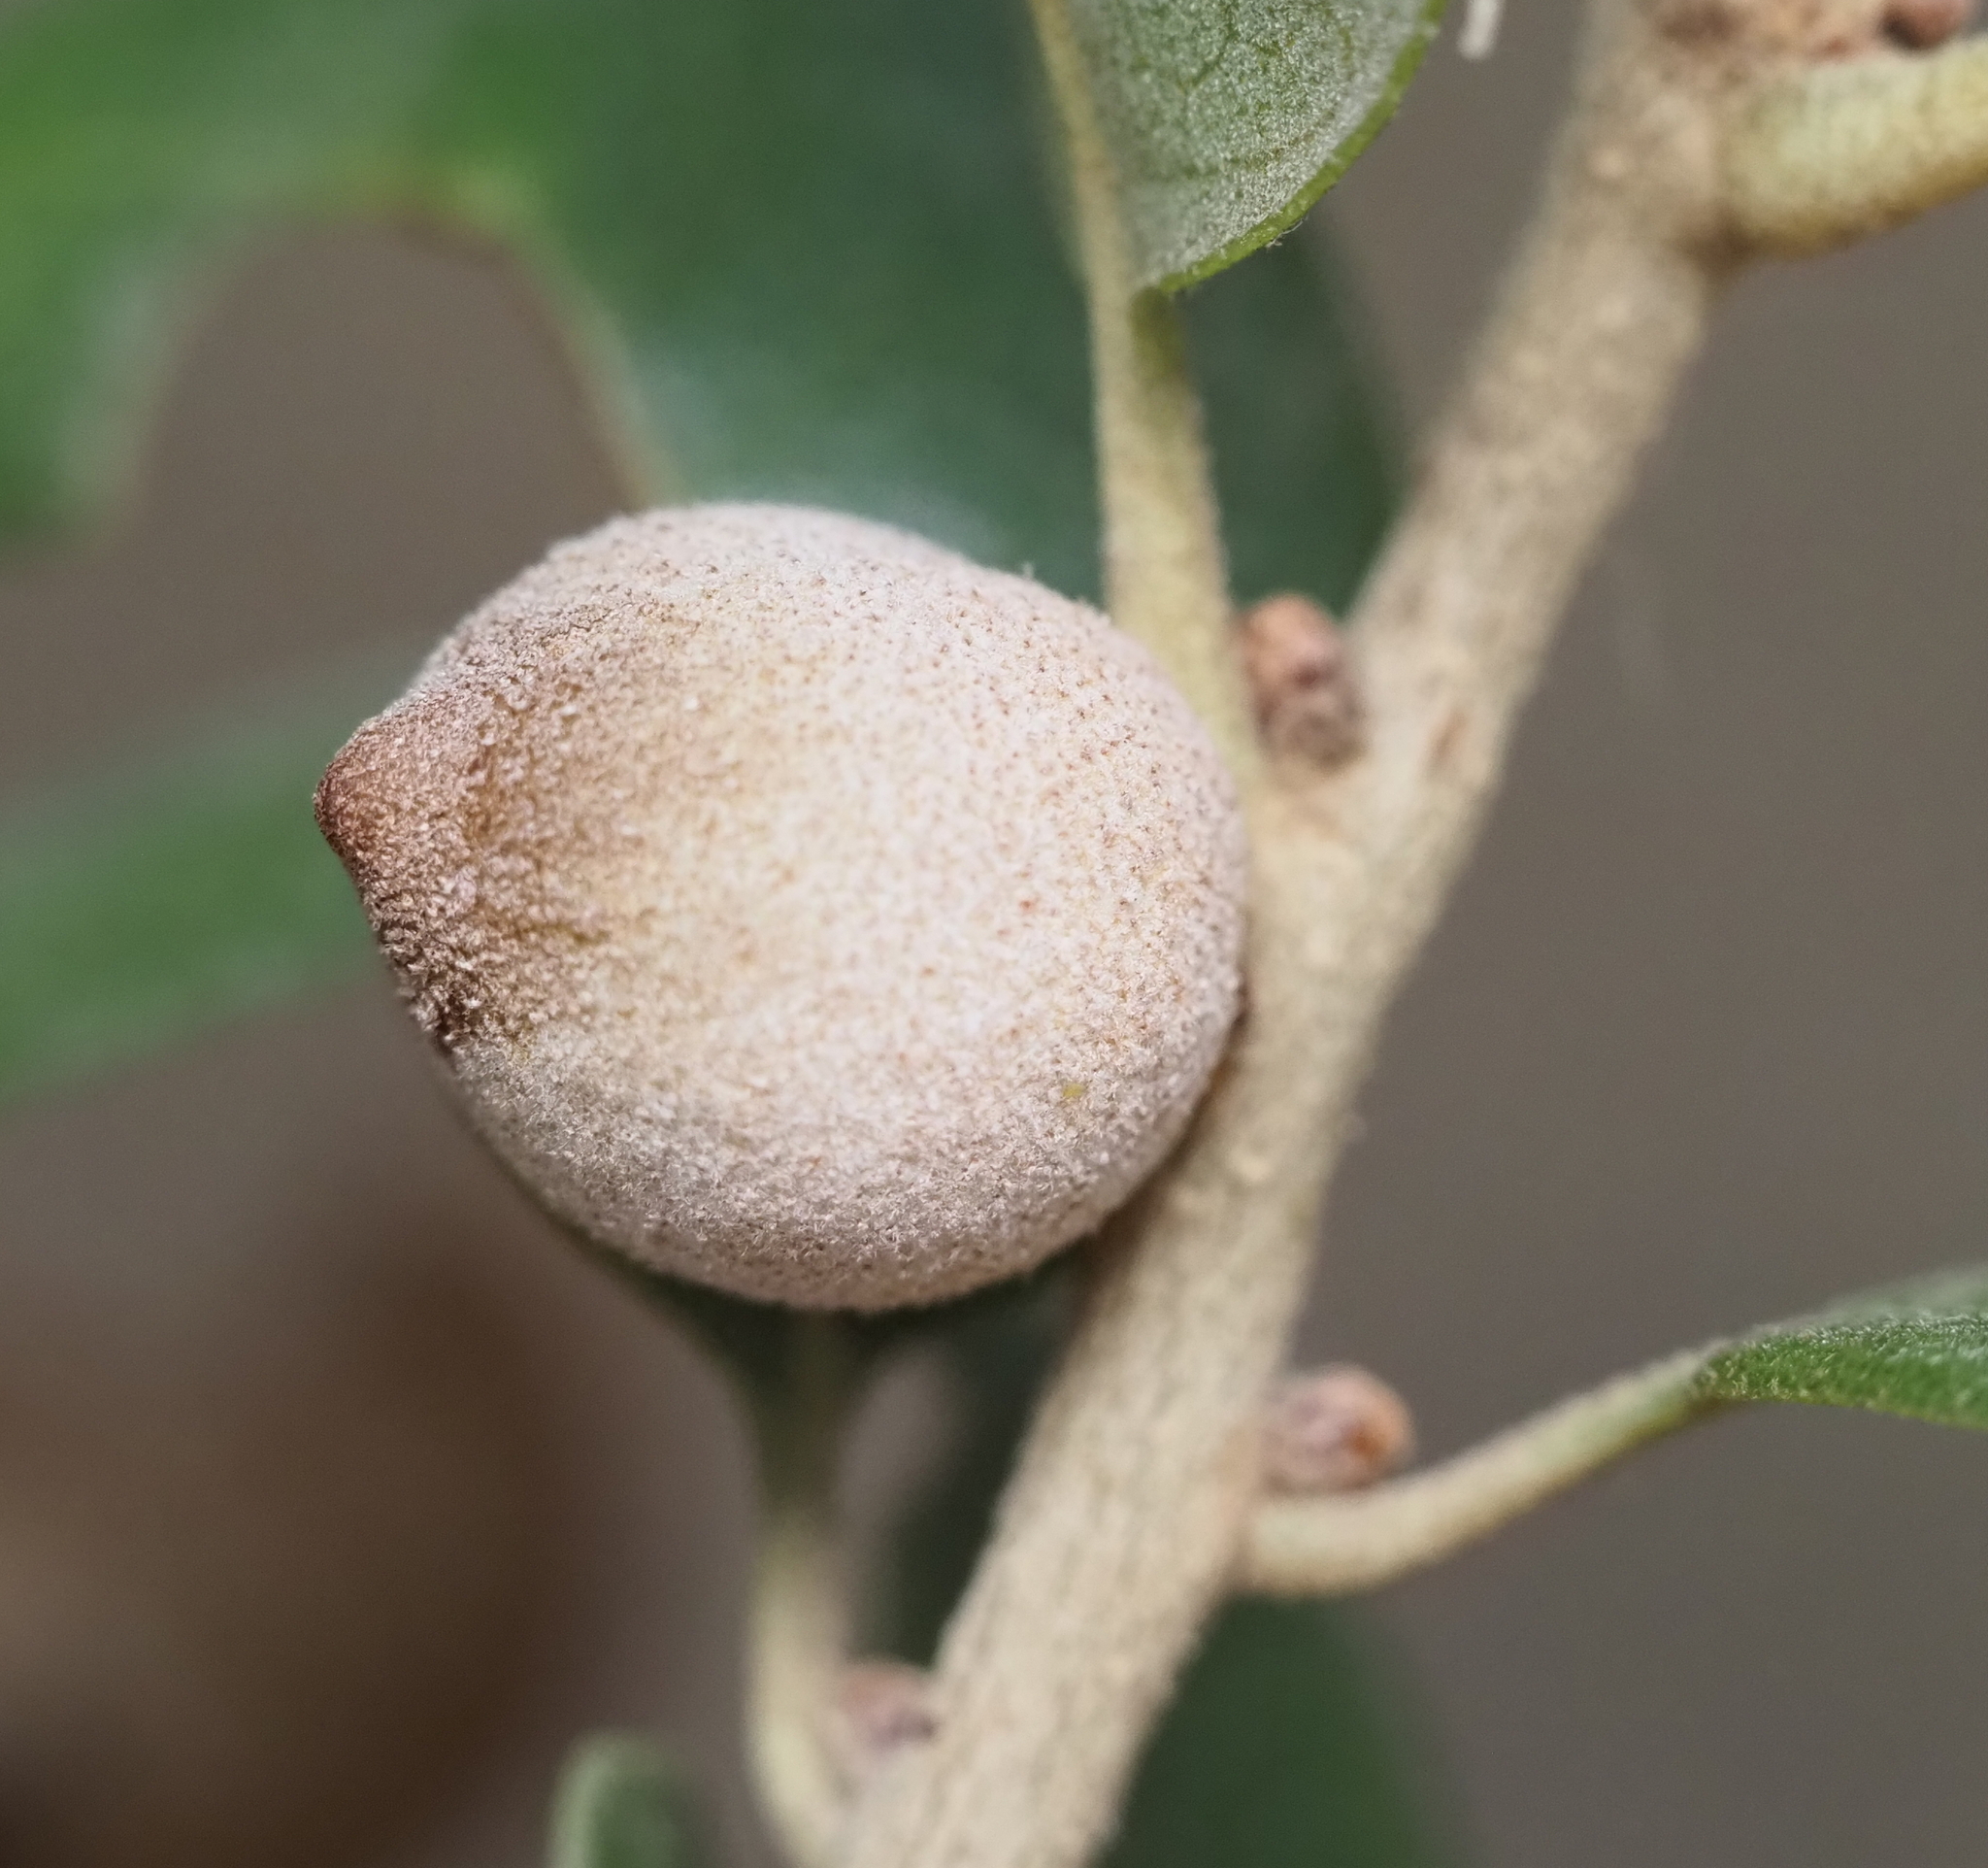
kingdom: Animalia
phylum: Arthropoda
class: Insecta
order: Hymenoptera
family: Cynipidae
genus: Disholcaspis
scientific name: Disholcaspis
